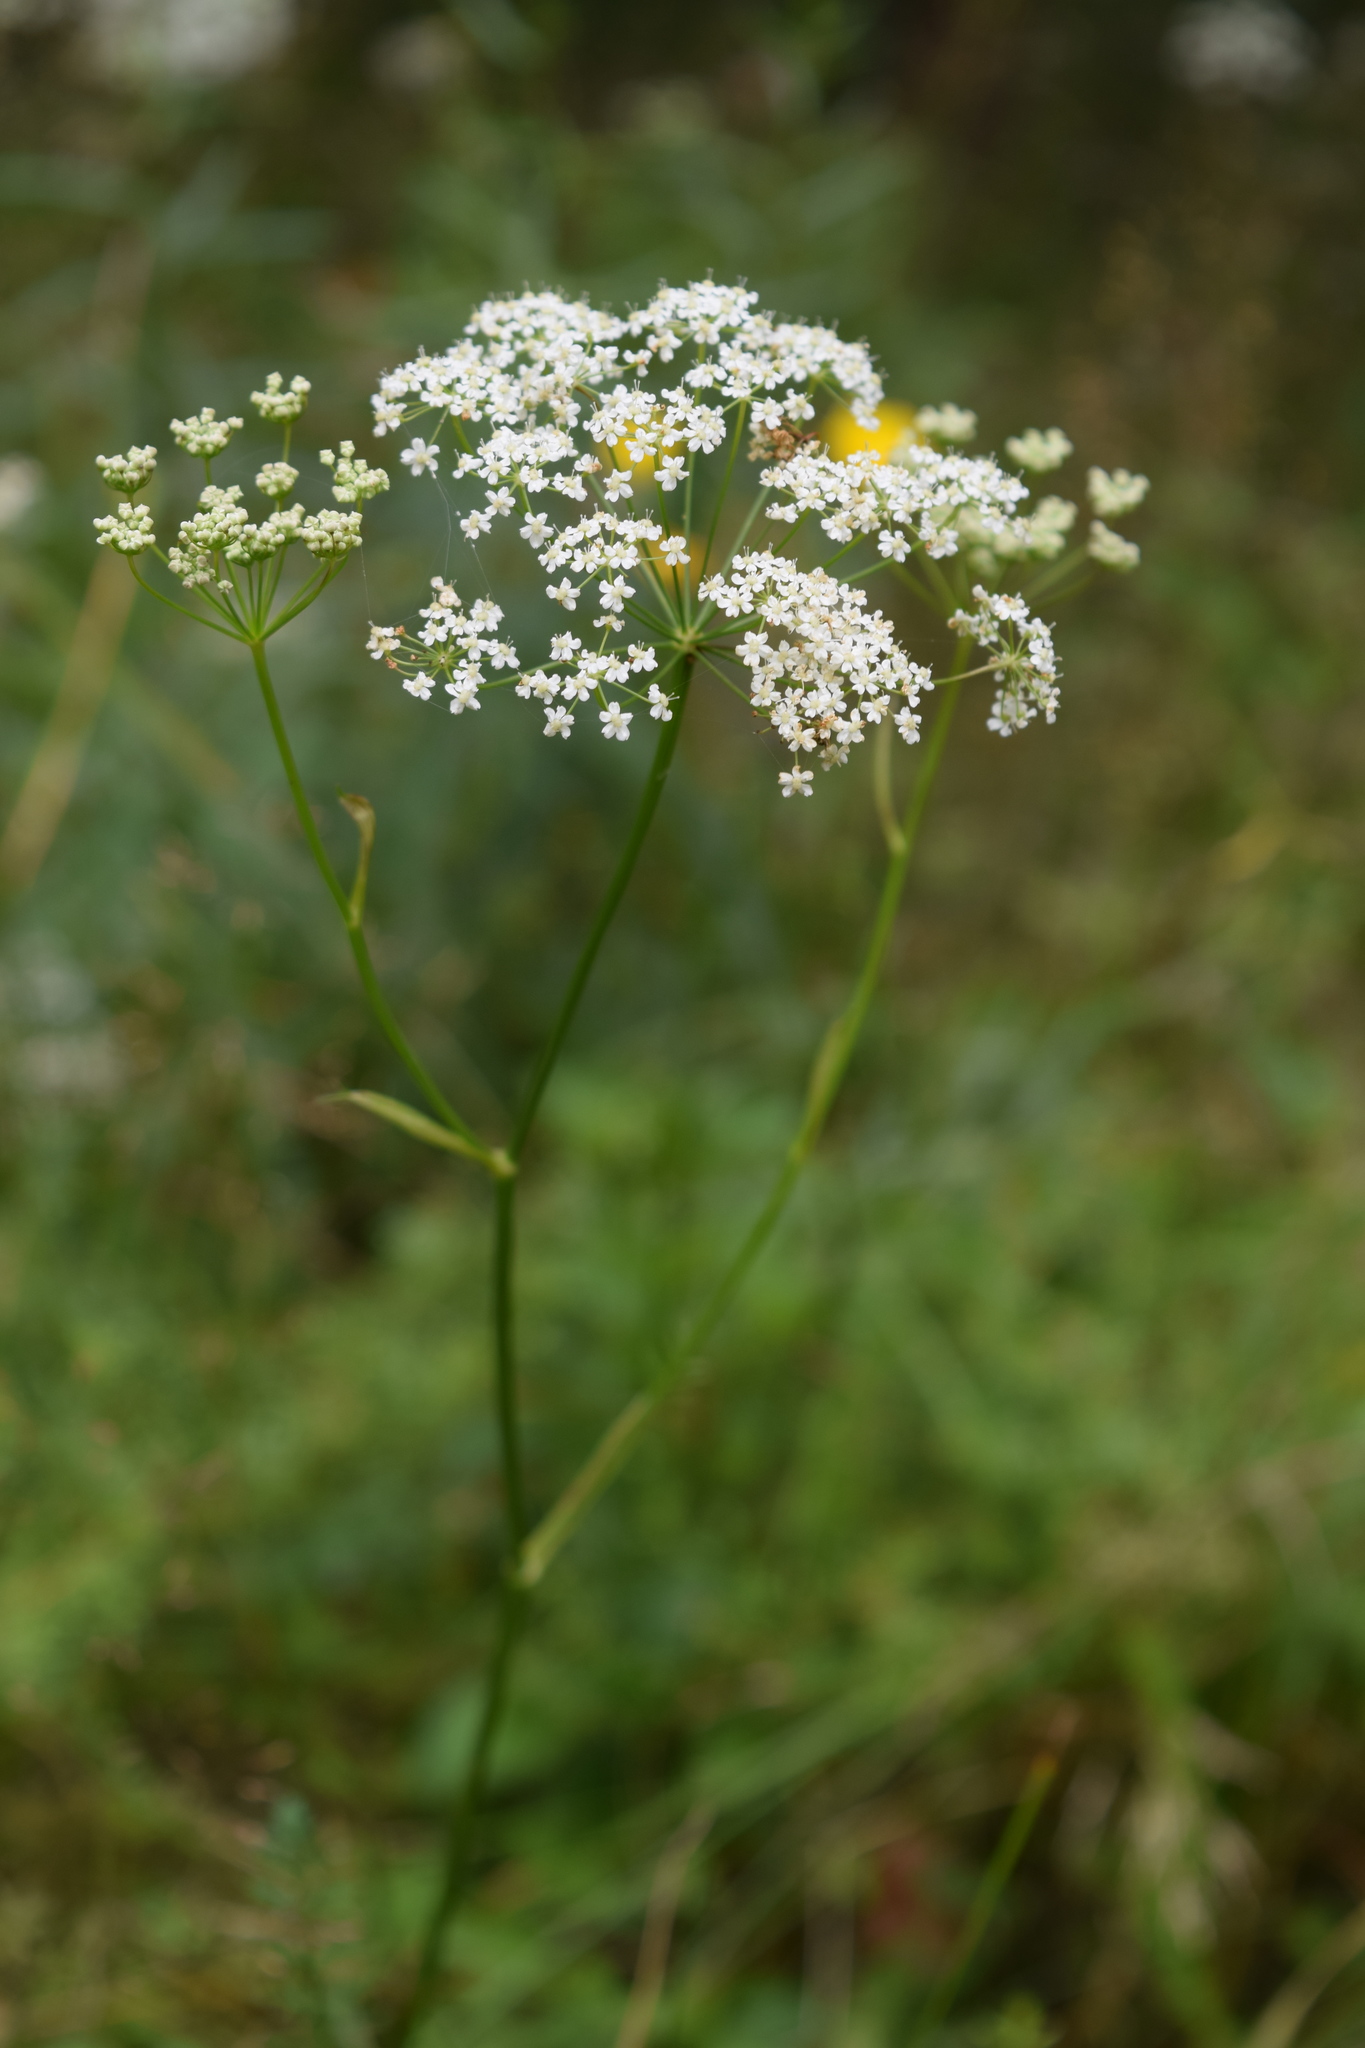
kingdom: Plantae
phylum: Tracheophyta
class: Magnoliopsida
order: Apiales
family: Apiaceae
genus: Pimpinella
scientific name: Pimpinella saxifraga
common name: Burnet-saxifrage
